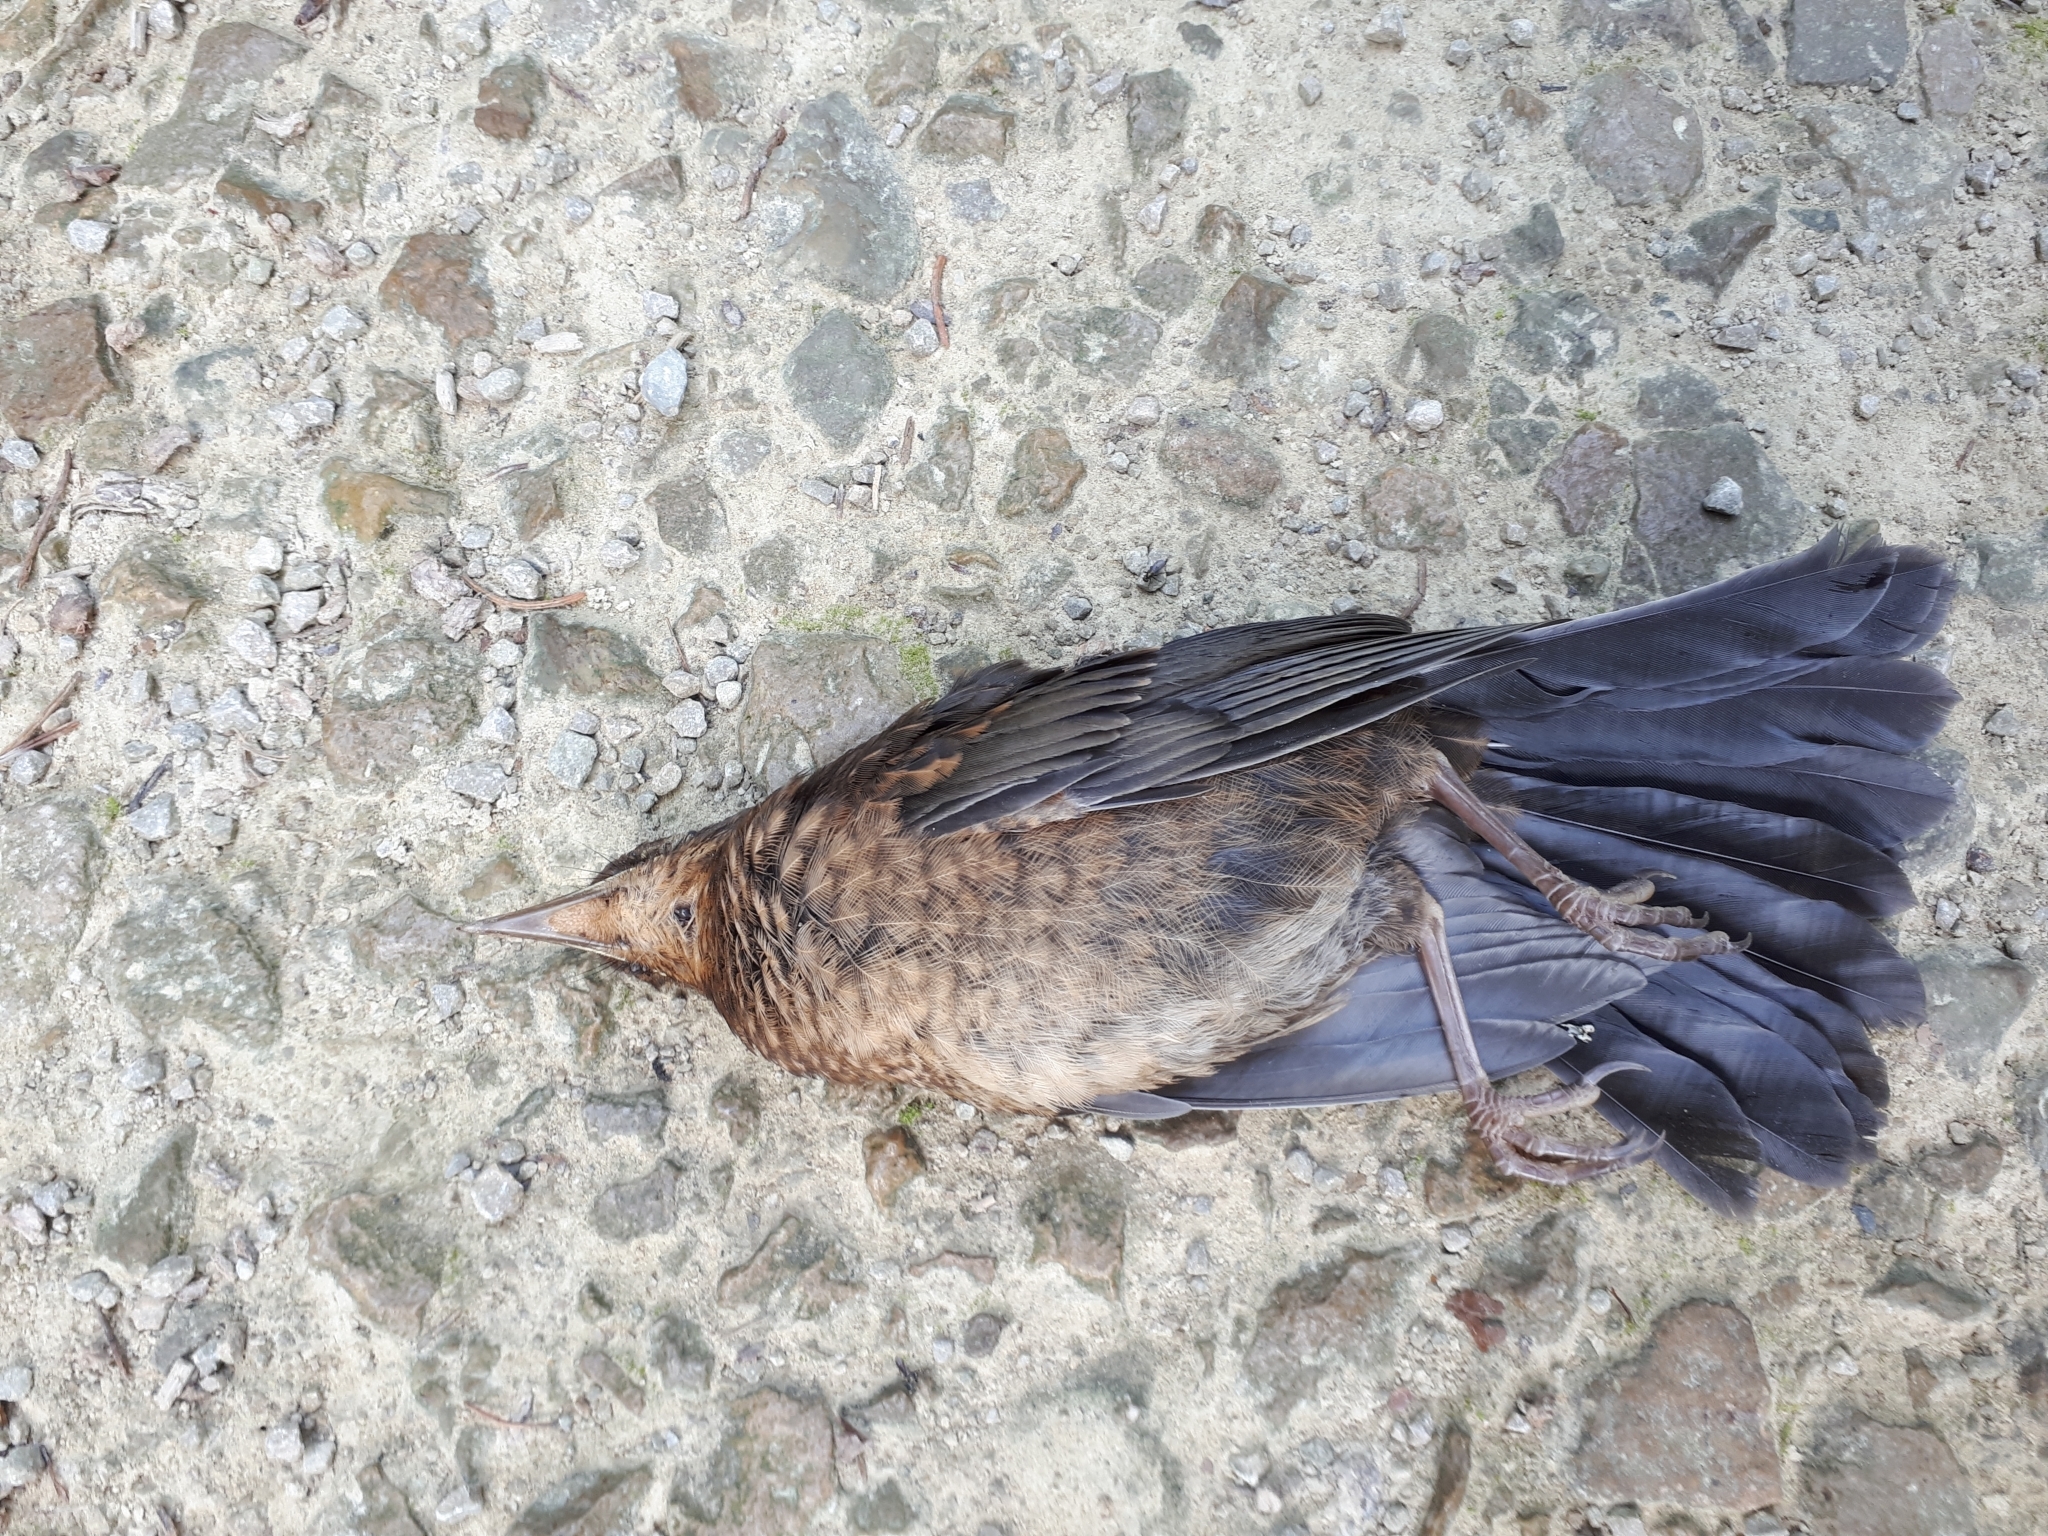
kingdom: Animalia
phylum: Chordata
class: Aves
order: Passeriformes
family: Turdidae
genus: Turdus
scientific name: Turdus merula
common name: Common blackbird
